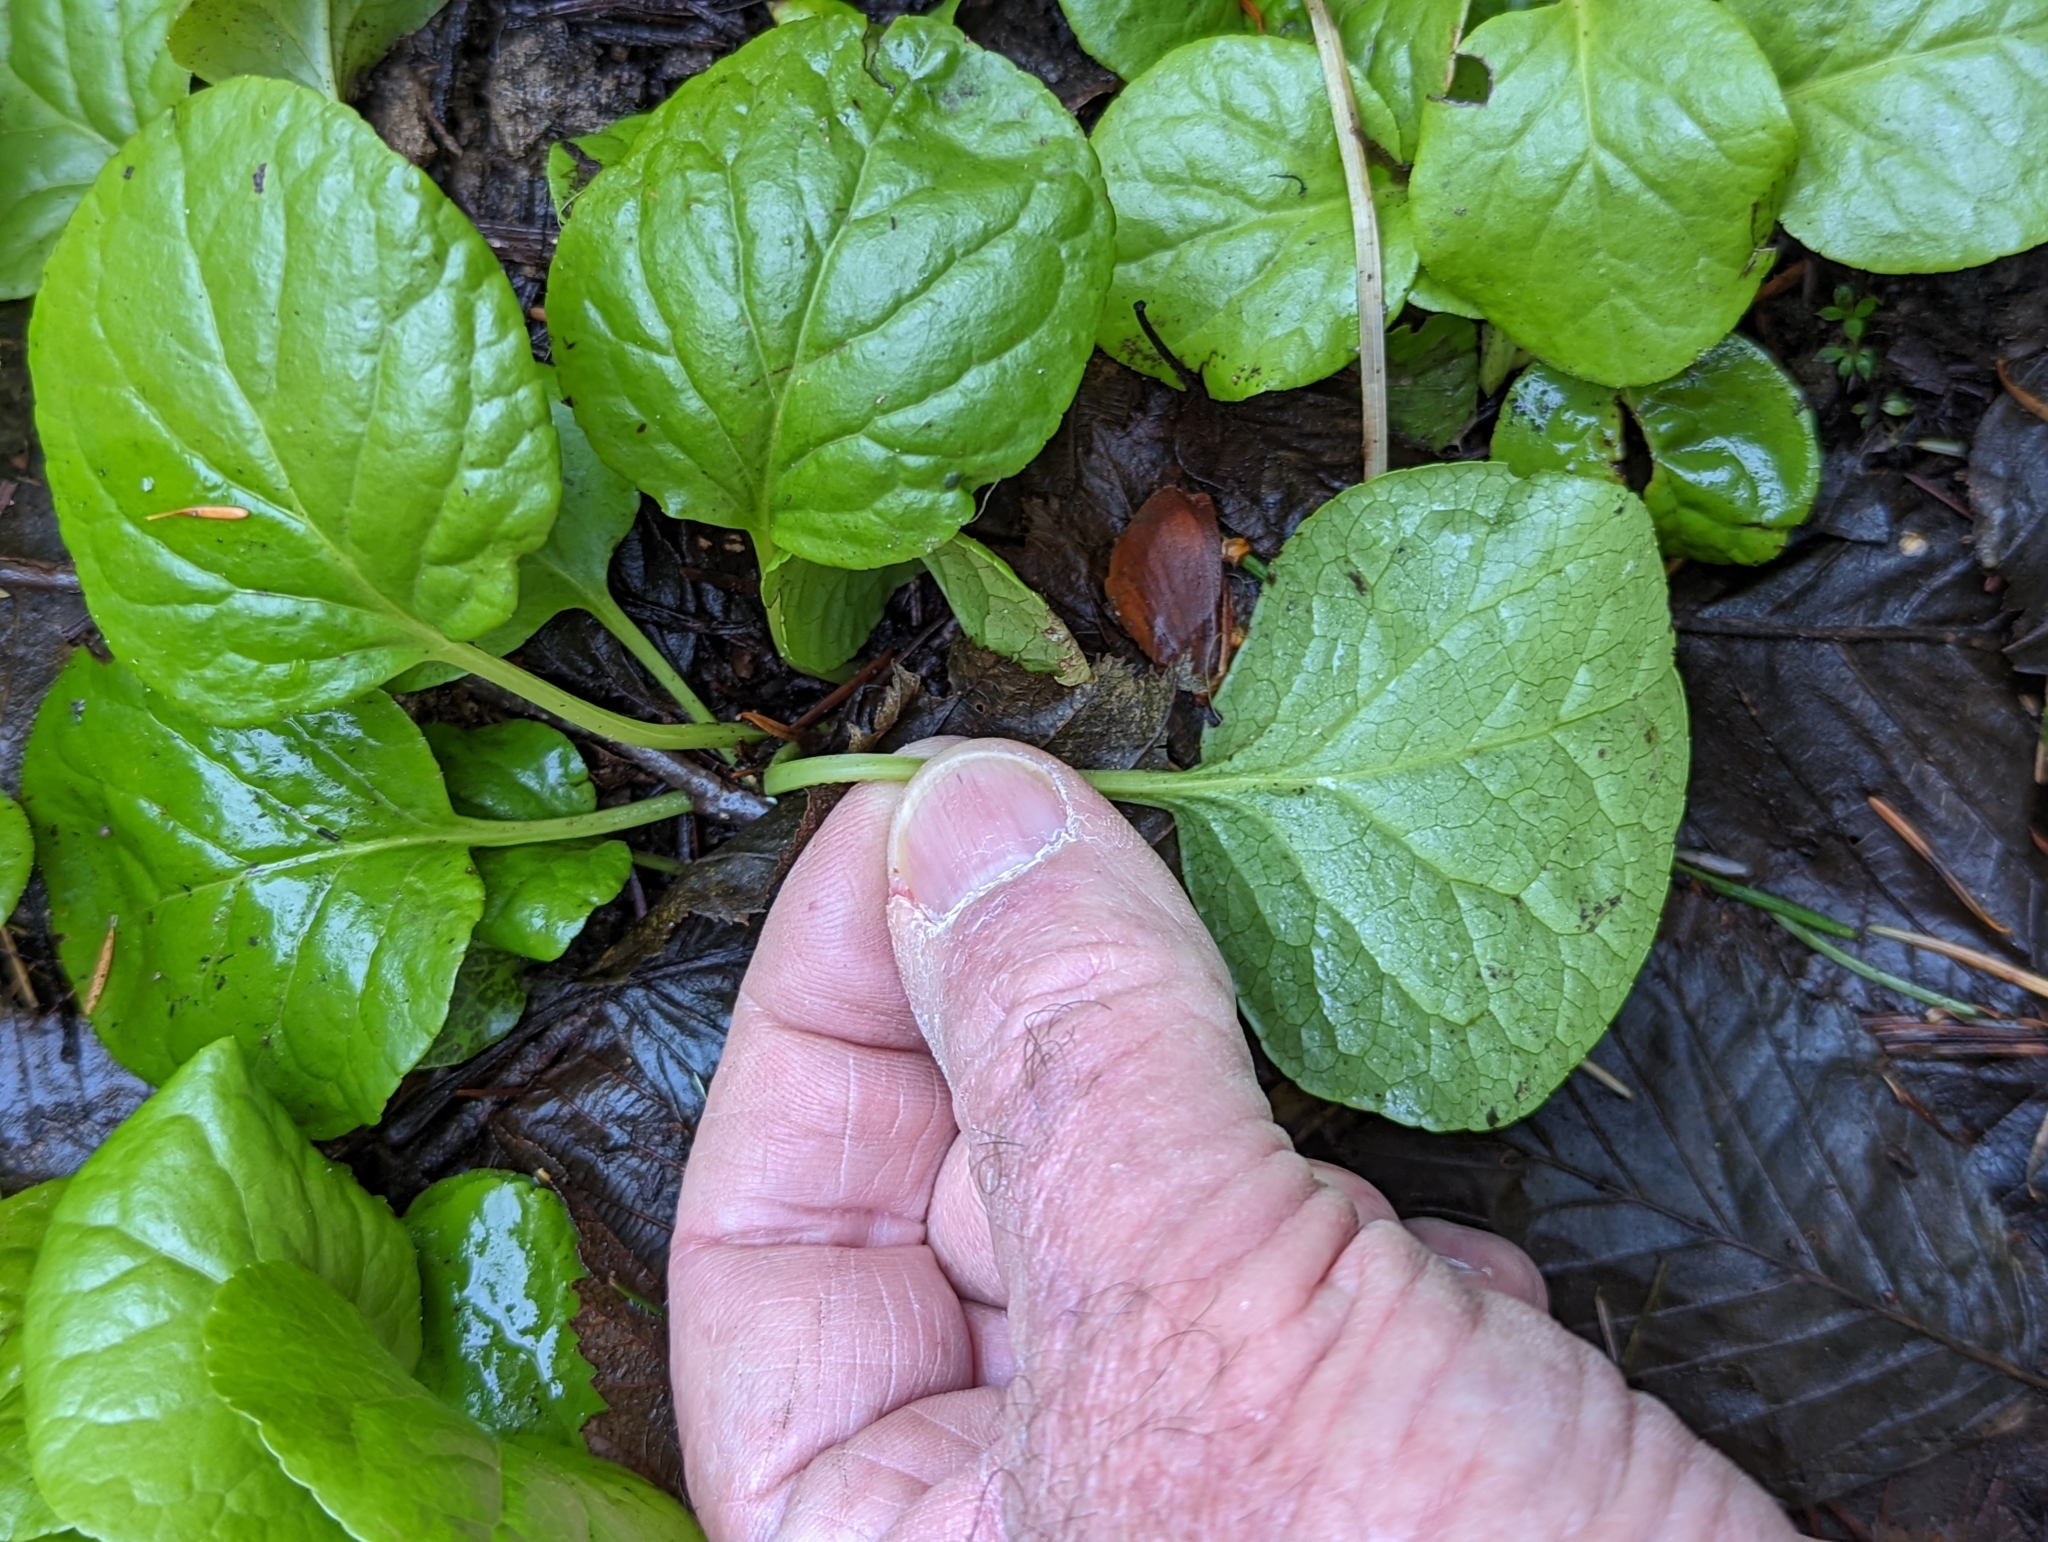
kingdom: Plantae
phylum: Tracheophyta
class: Magnoliopsida
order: Ericales
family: Ericaceae
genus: Pyrola
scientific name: Pyrola asarifolia
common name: Bog wintergreen
